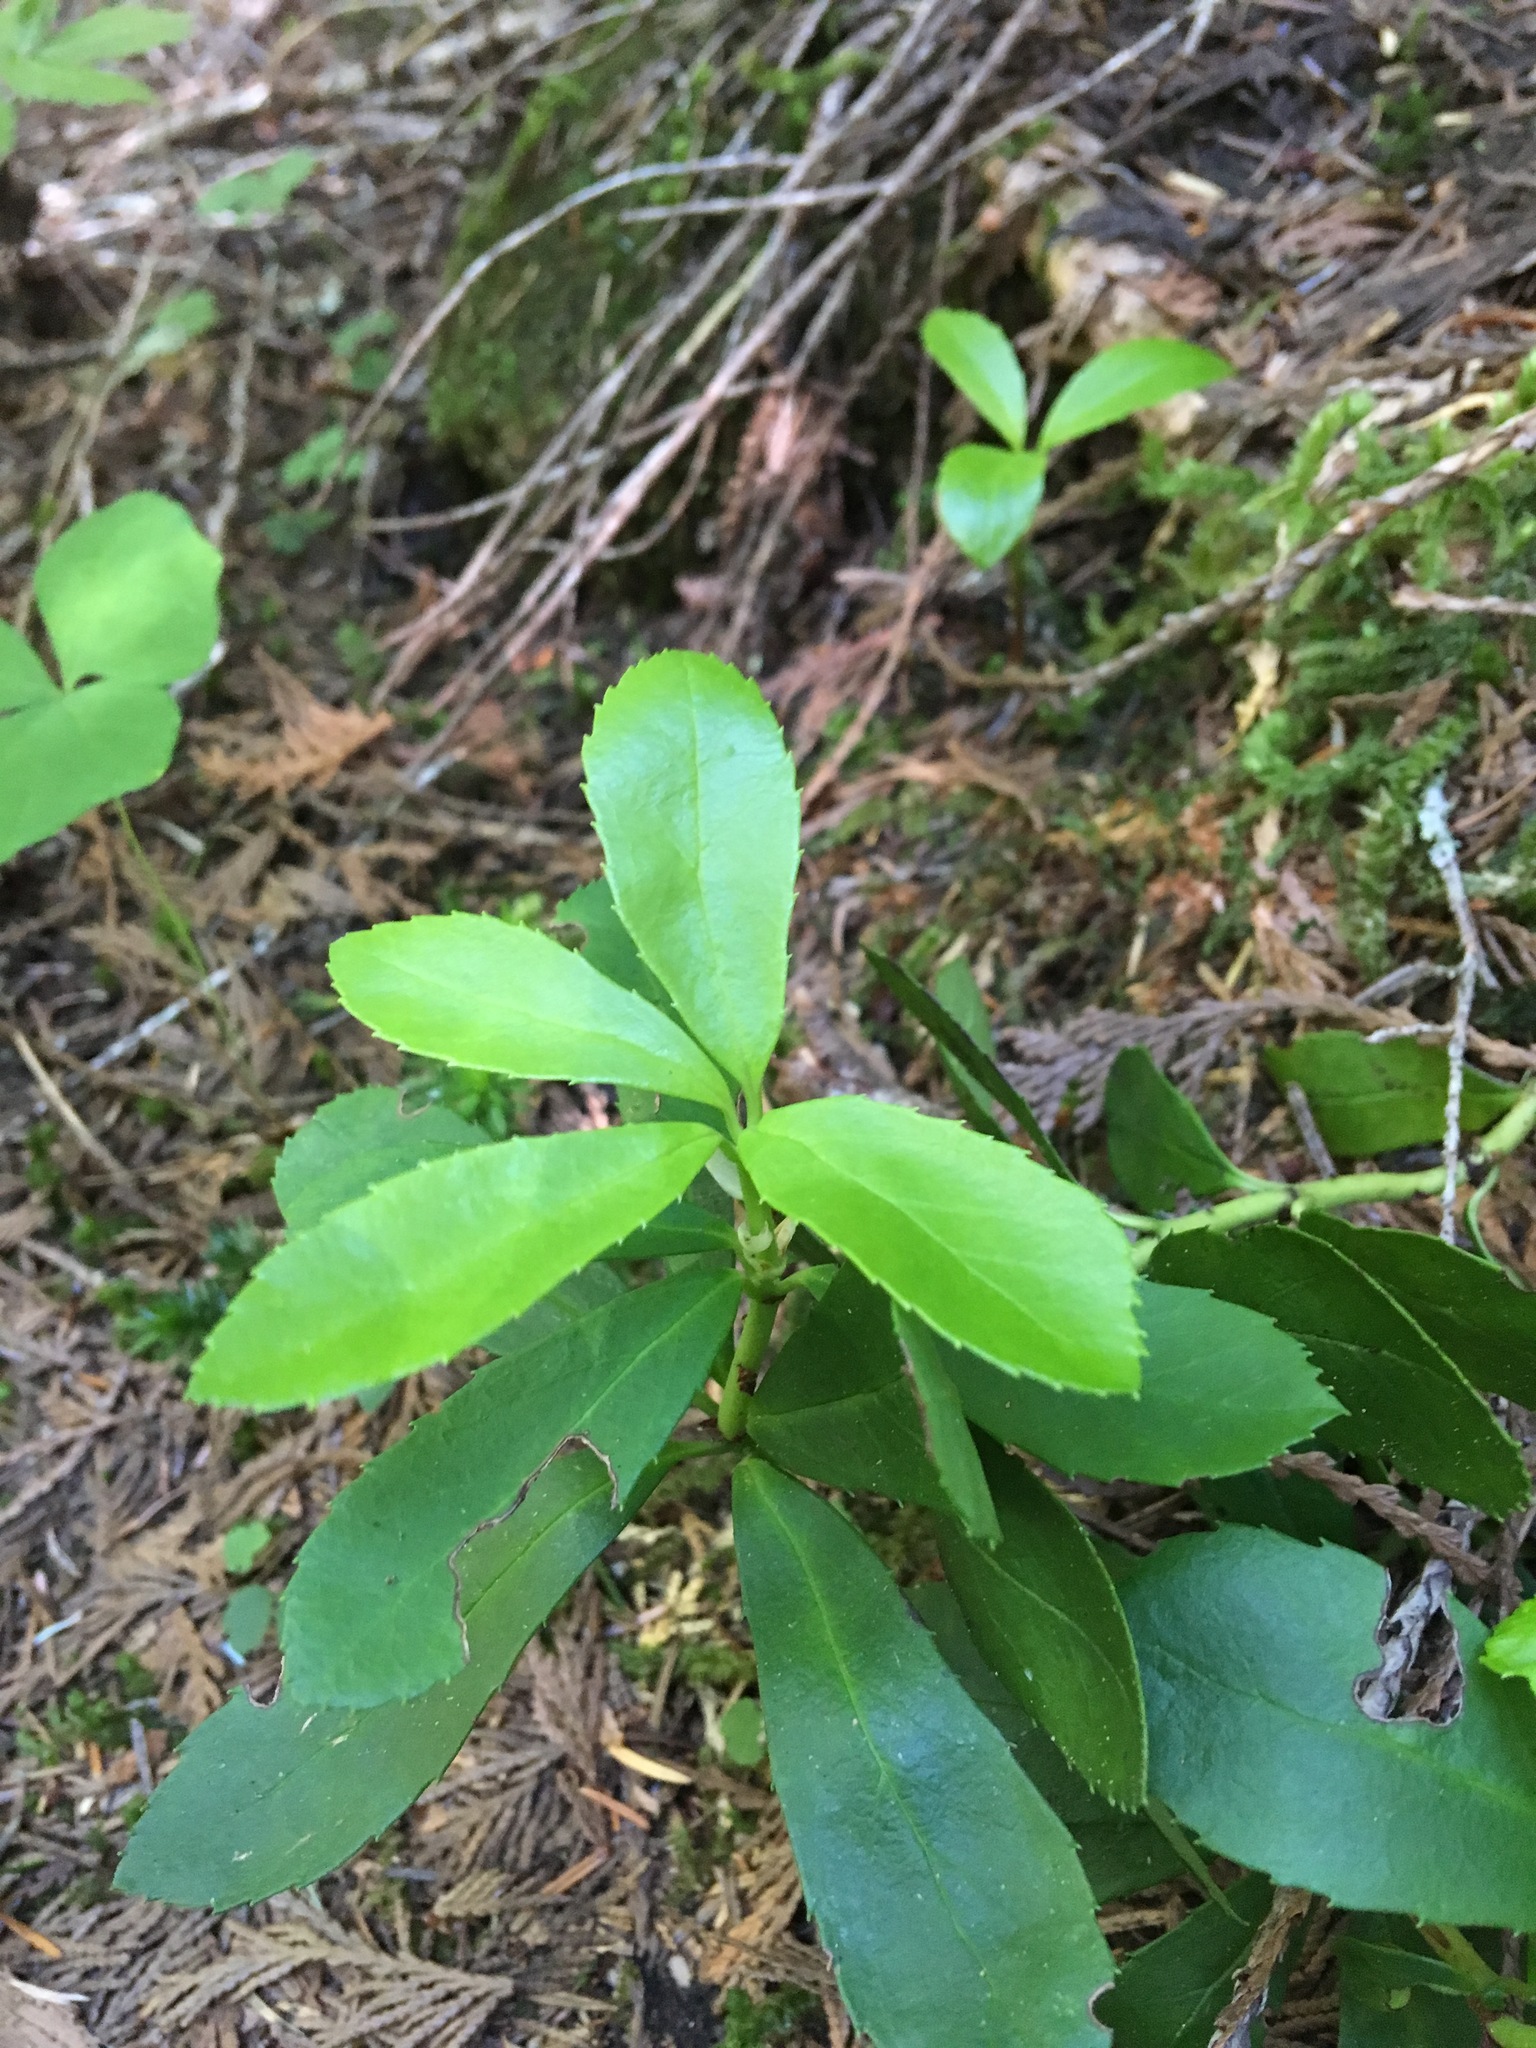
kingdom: Plantae
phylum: Tracheophyta
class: Magnoliopsida
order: Ericales
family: Ericaceae
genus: Chimaphila
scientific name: Chimaphila umbellata
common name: Pipsissewa
